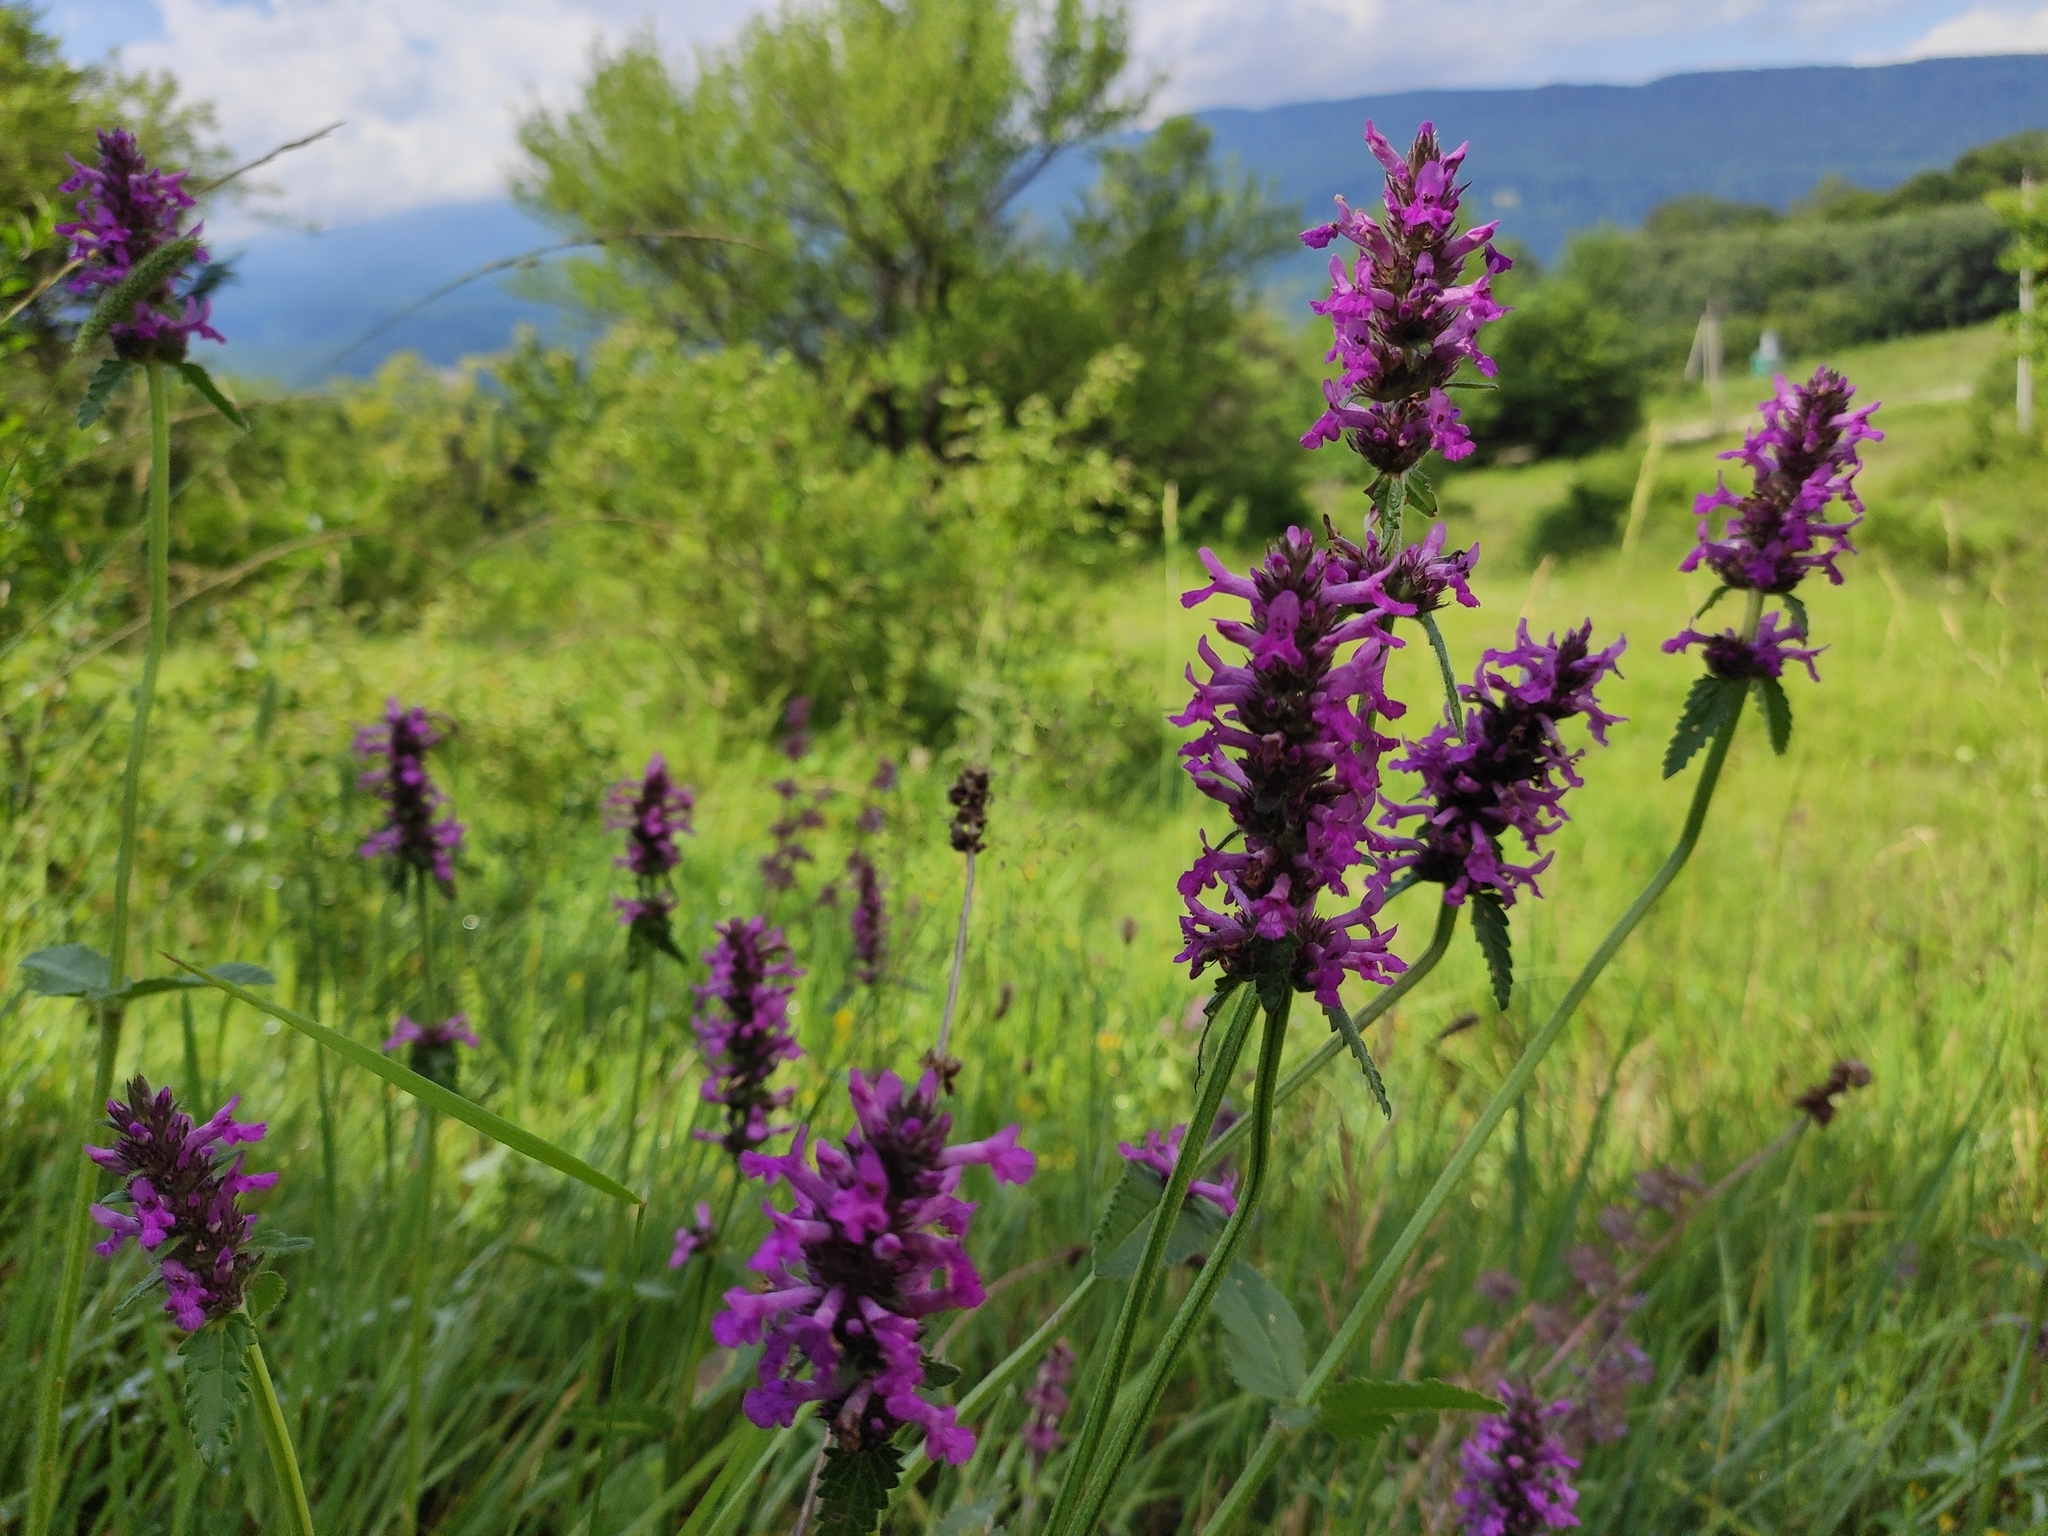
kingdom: Plantae
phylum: Tracheophyta
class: Magnoliopsida
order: Lamiales
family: Lamiaceae
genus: Betonica
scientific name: Betonica officinalis
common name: Bishop's-wort
